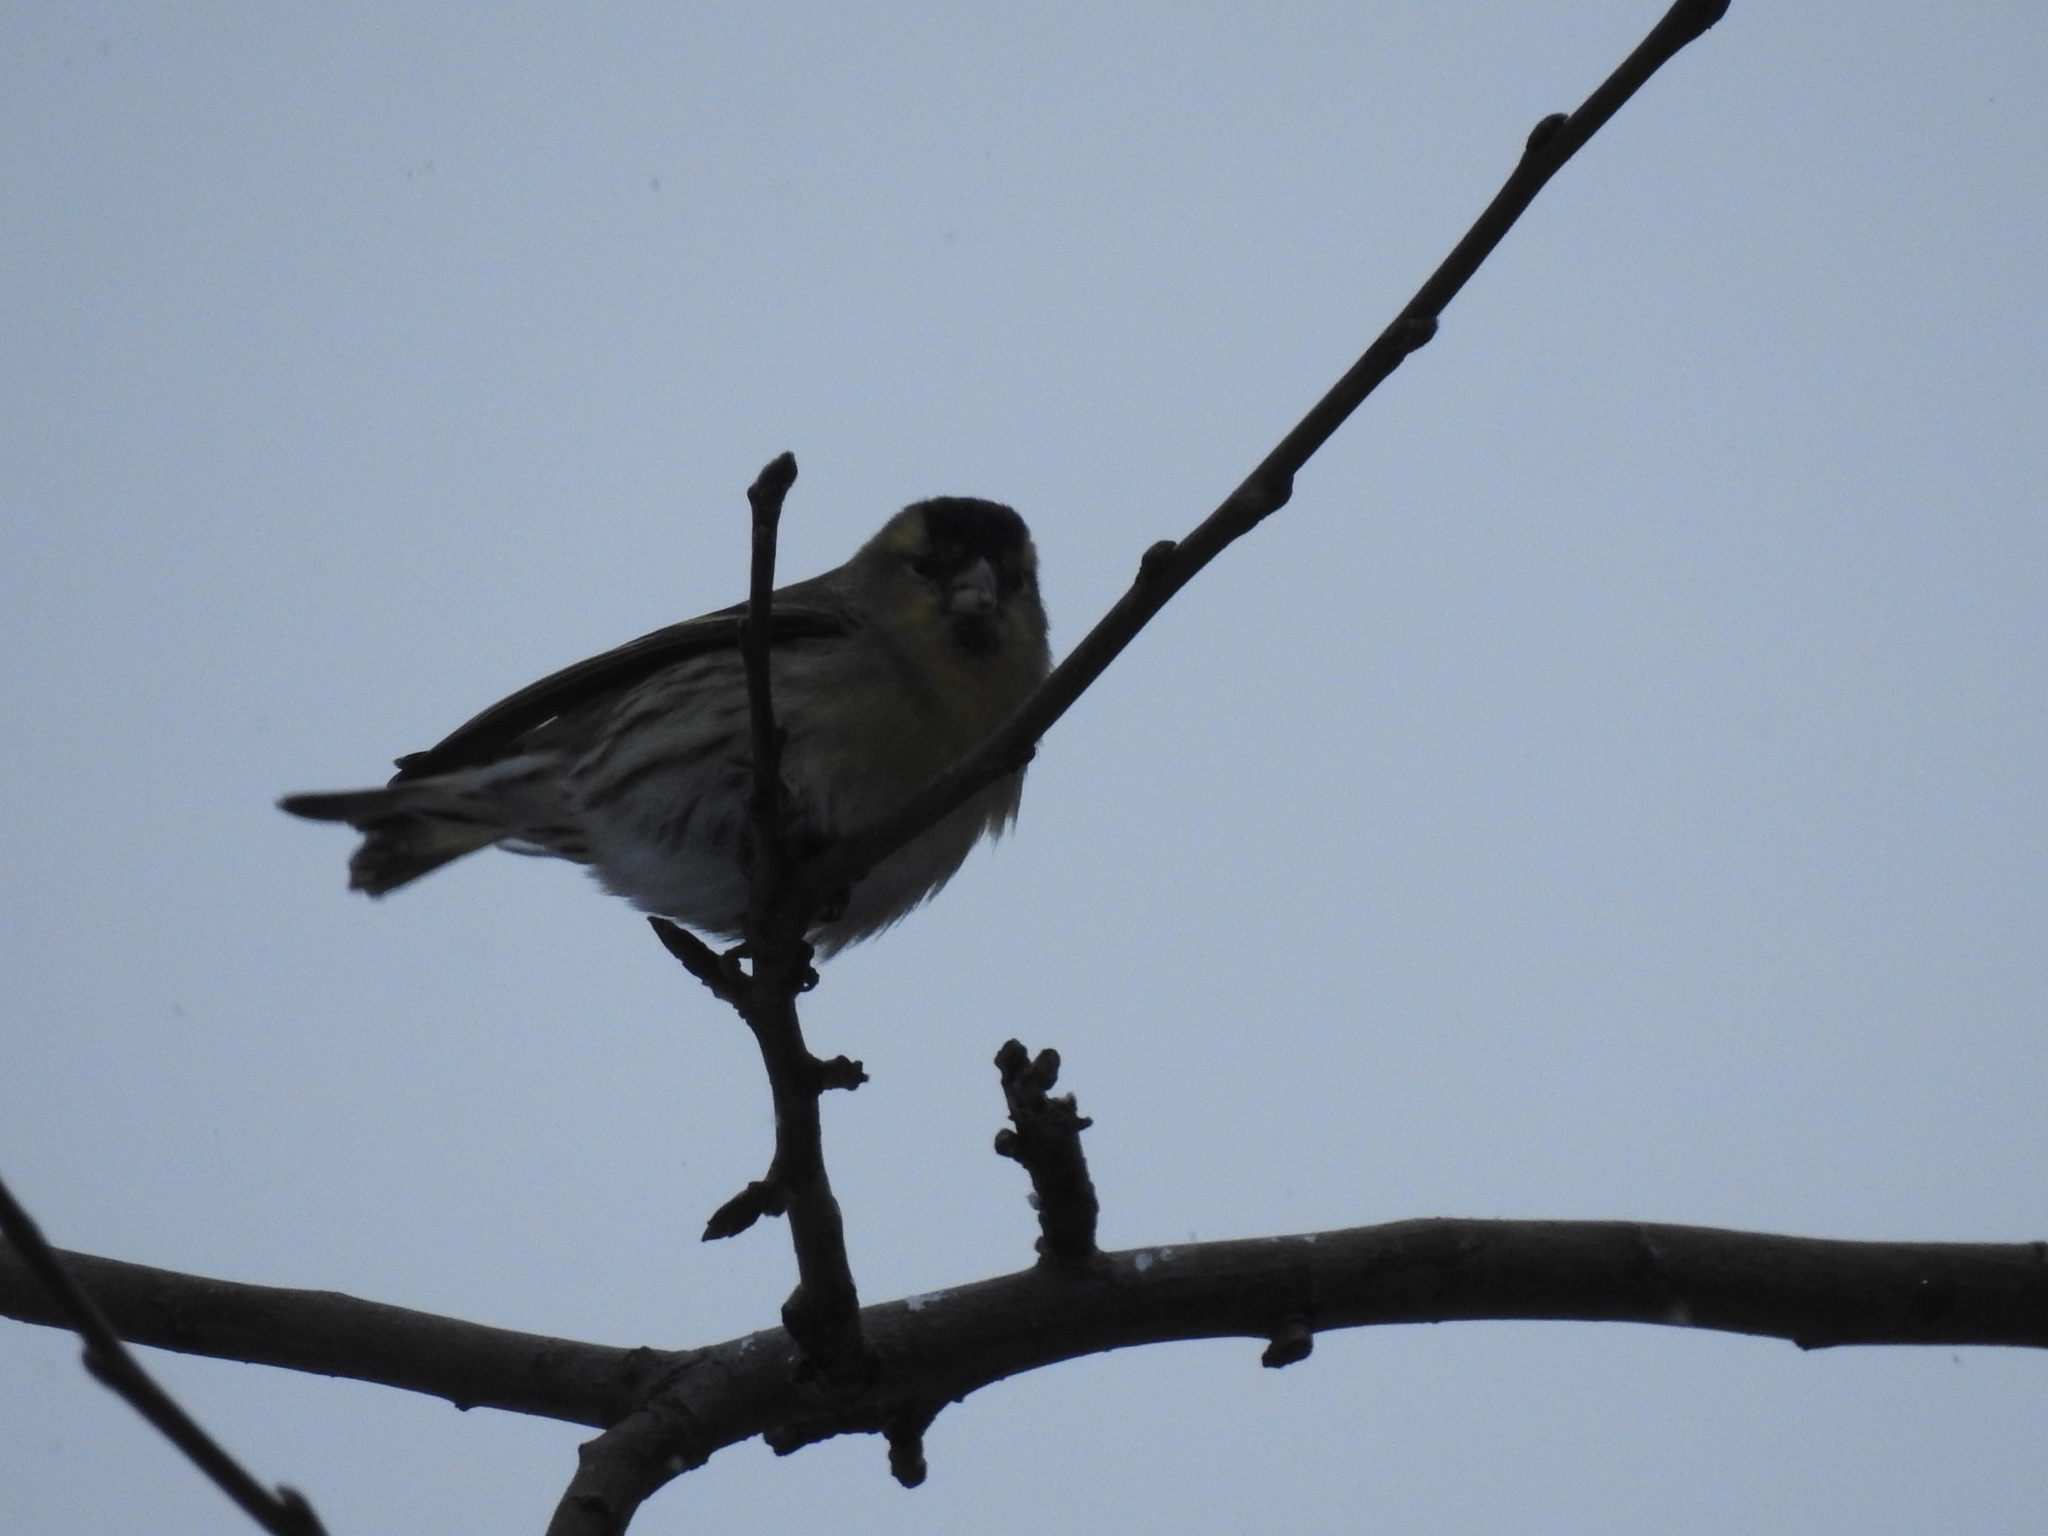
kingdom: Animalia
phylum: Chordata
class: Aves
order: Passeriformes
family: Fringillidae
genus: Spinus
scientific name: Spinus spinus
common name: Eurasian siskin
